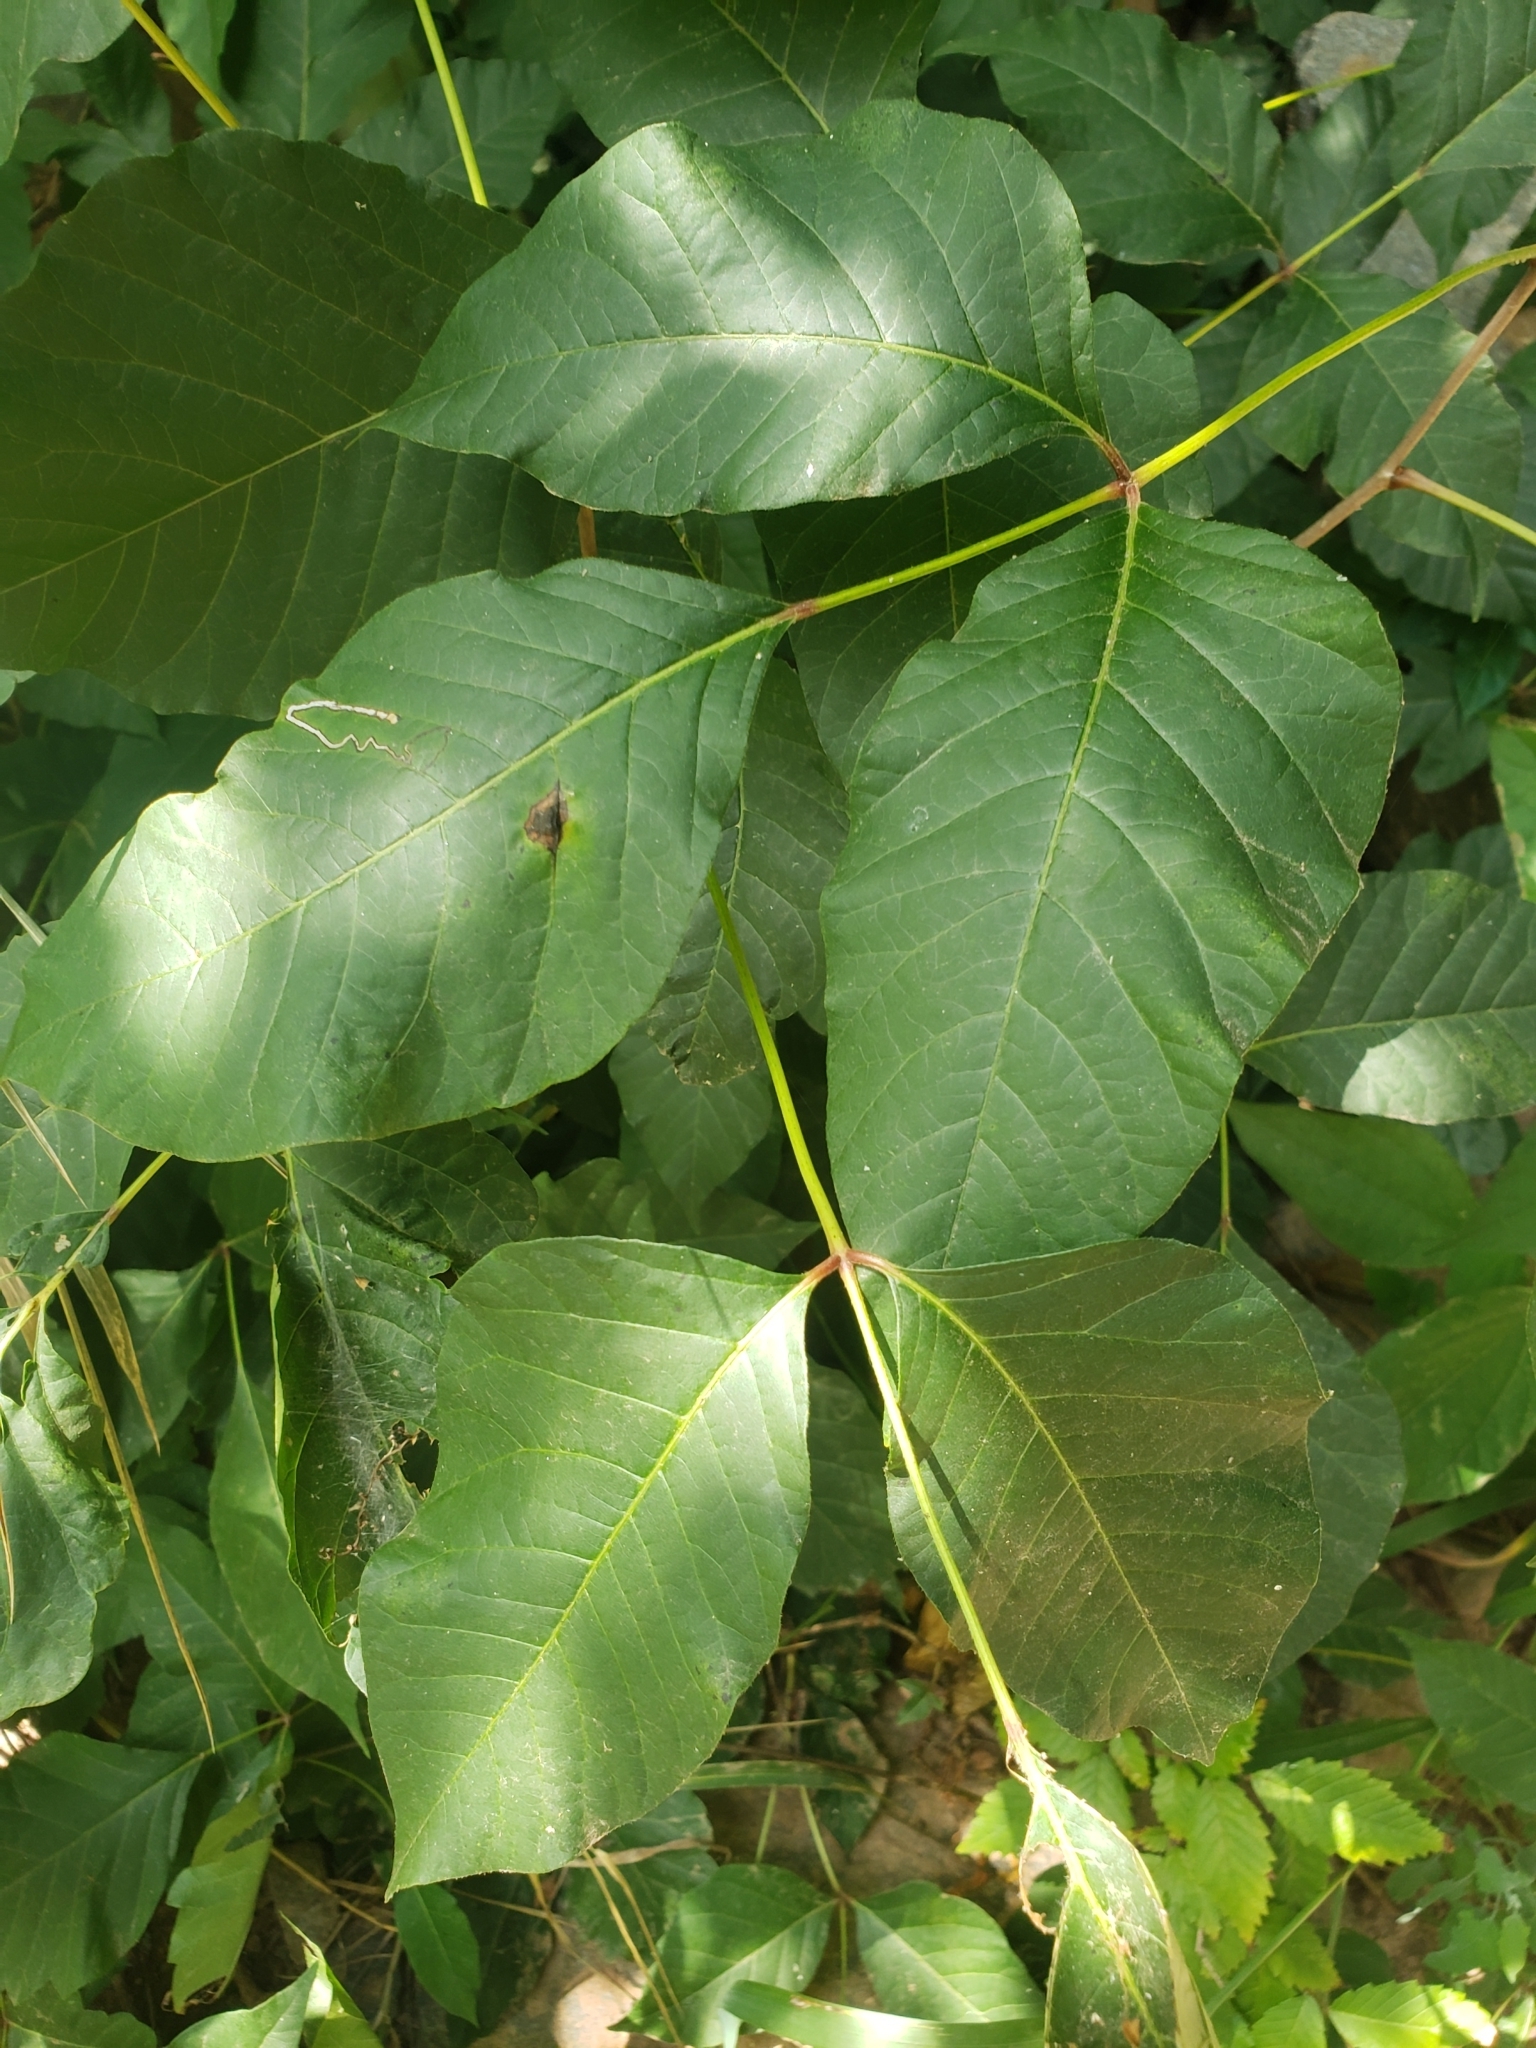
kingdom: Animalia
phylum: Arthropoda
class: Insecta
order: Lepidoptera
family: Gracillariidae
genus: Cameraria
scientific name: Cameraria guttifinitella
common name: Poison ivy leaf-miner moth
